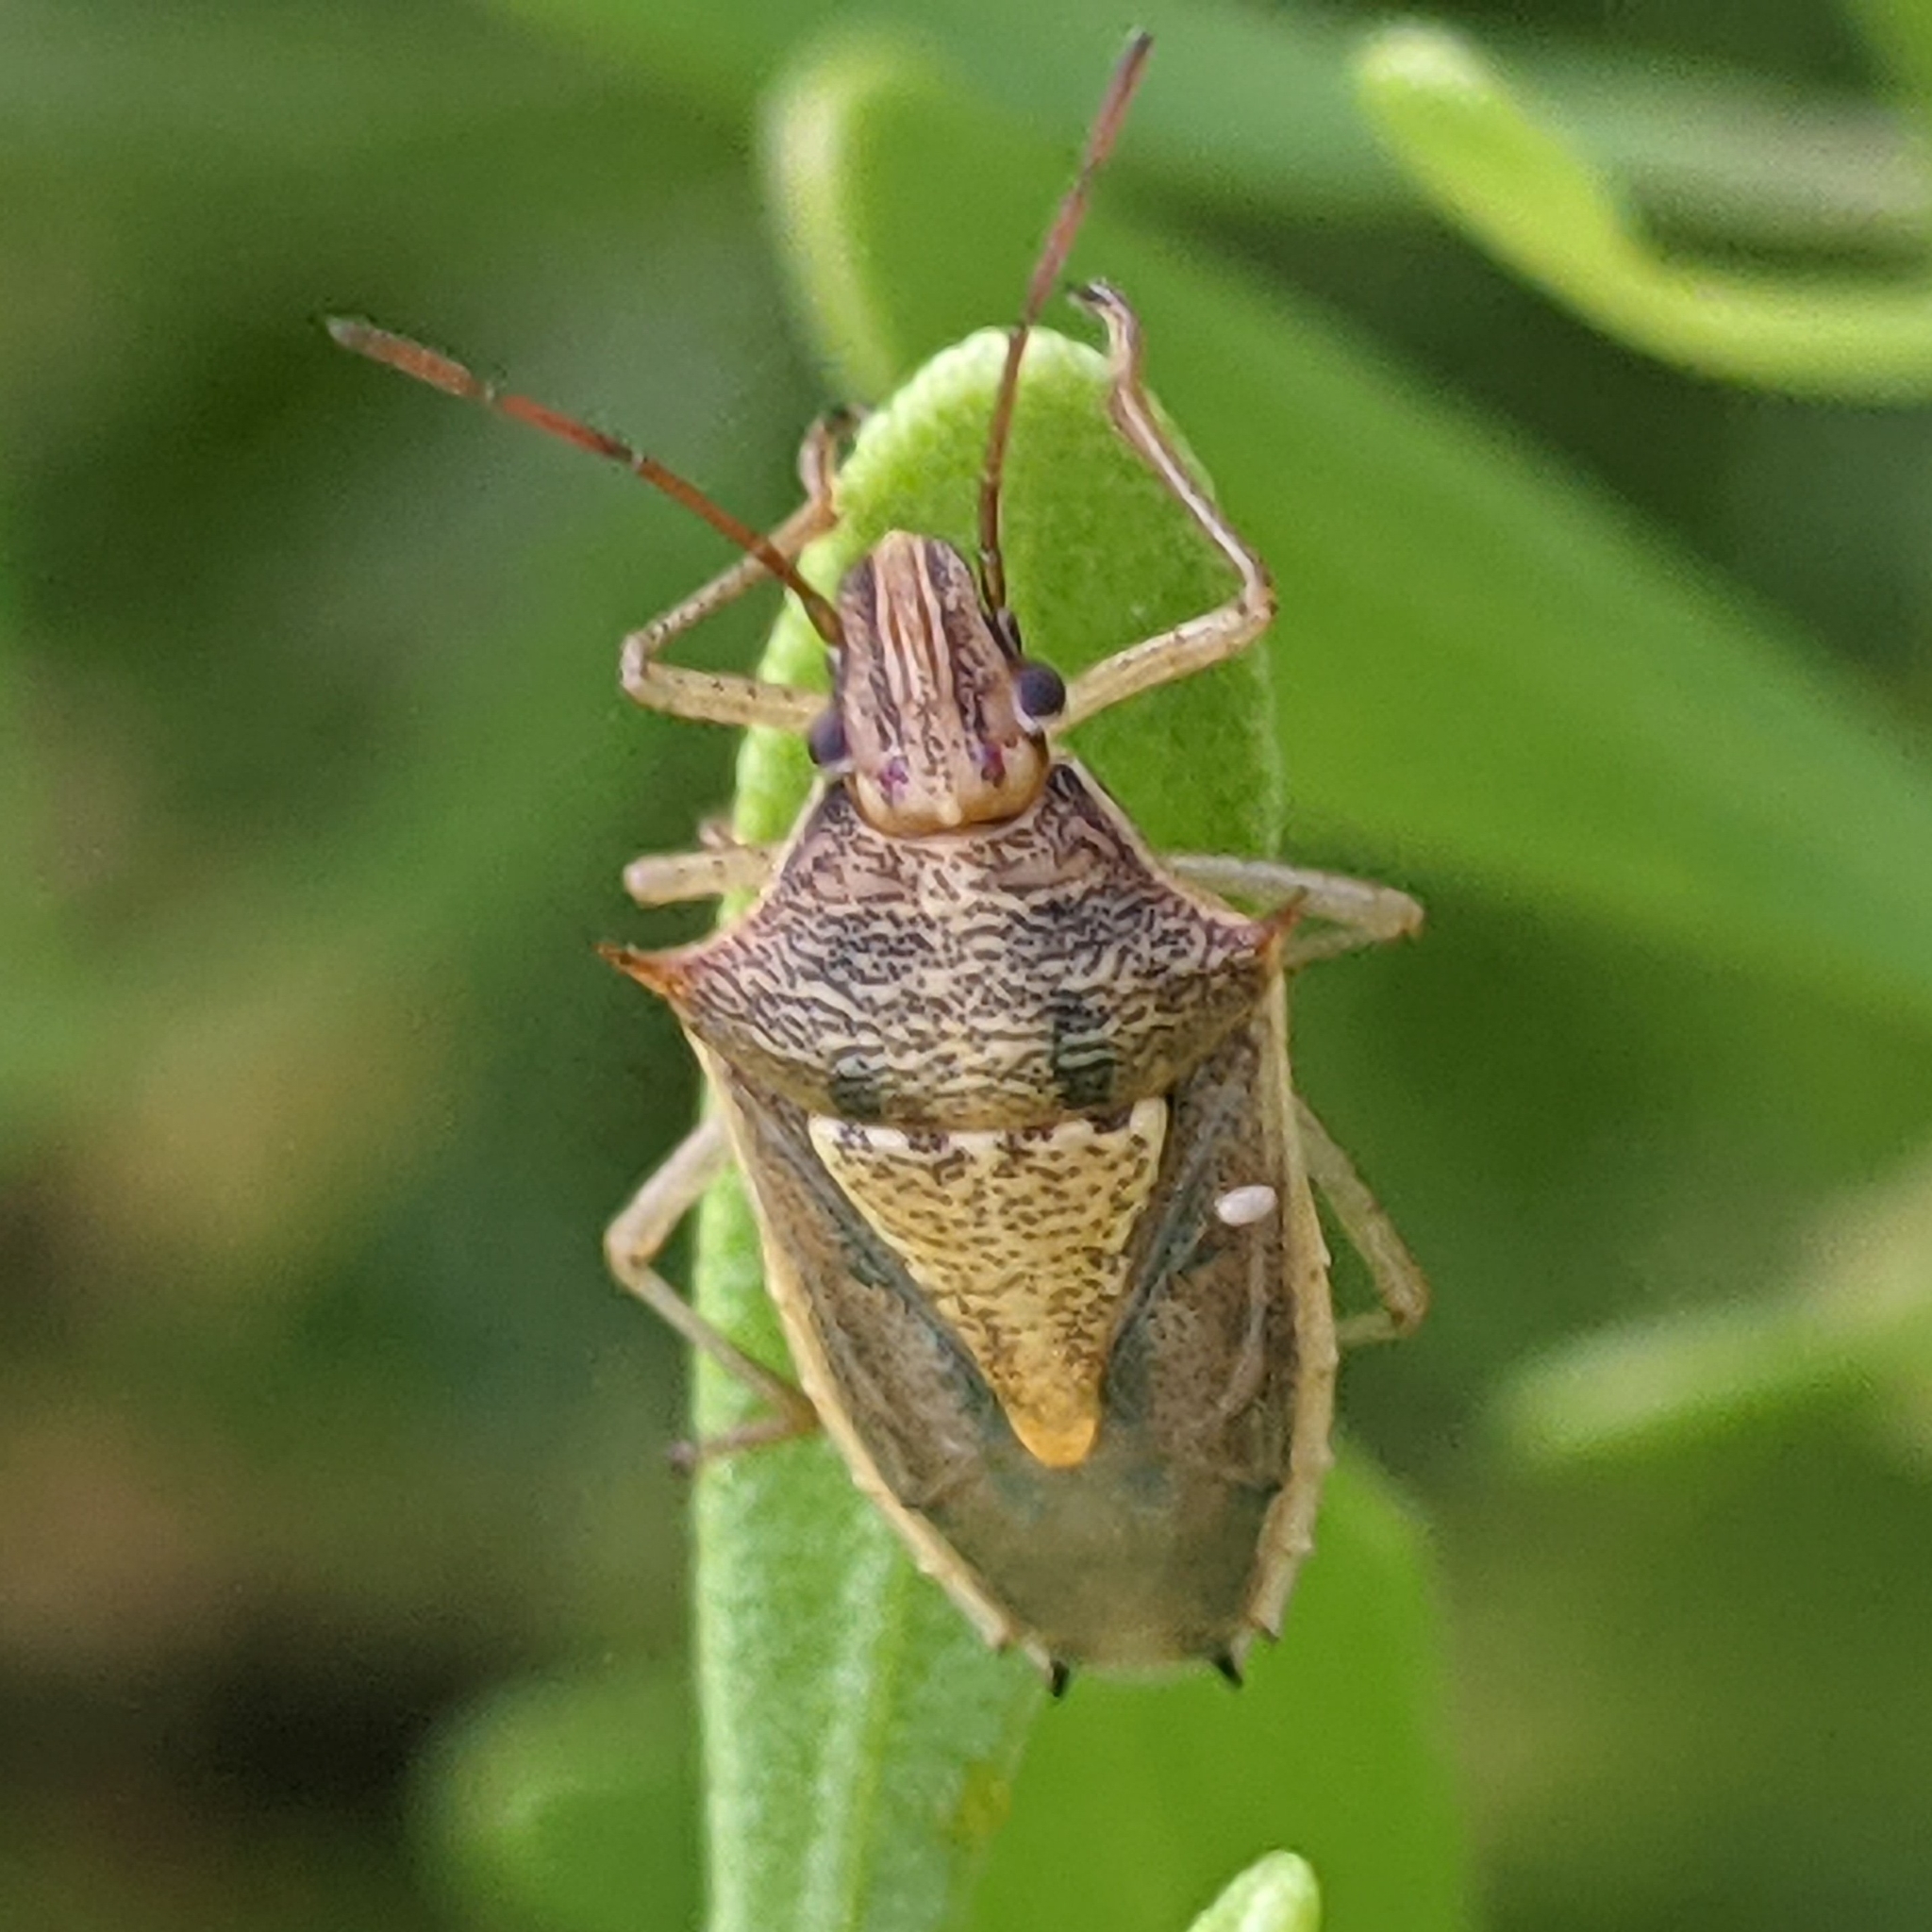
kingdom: Animalia
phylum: Arthropoda
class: Insecta
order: Hemiptera
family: Pentatomidae
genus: Oebalus
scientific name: Oebalus pugnax
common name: Rice stink bug
